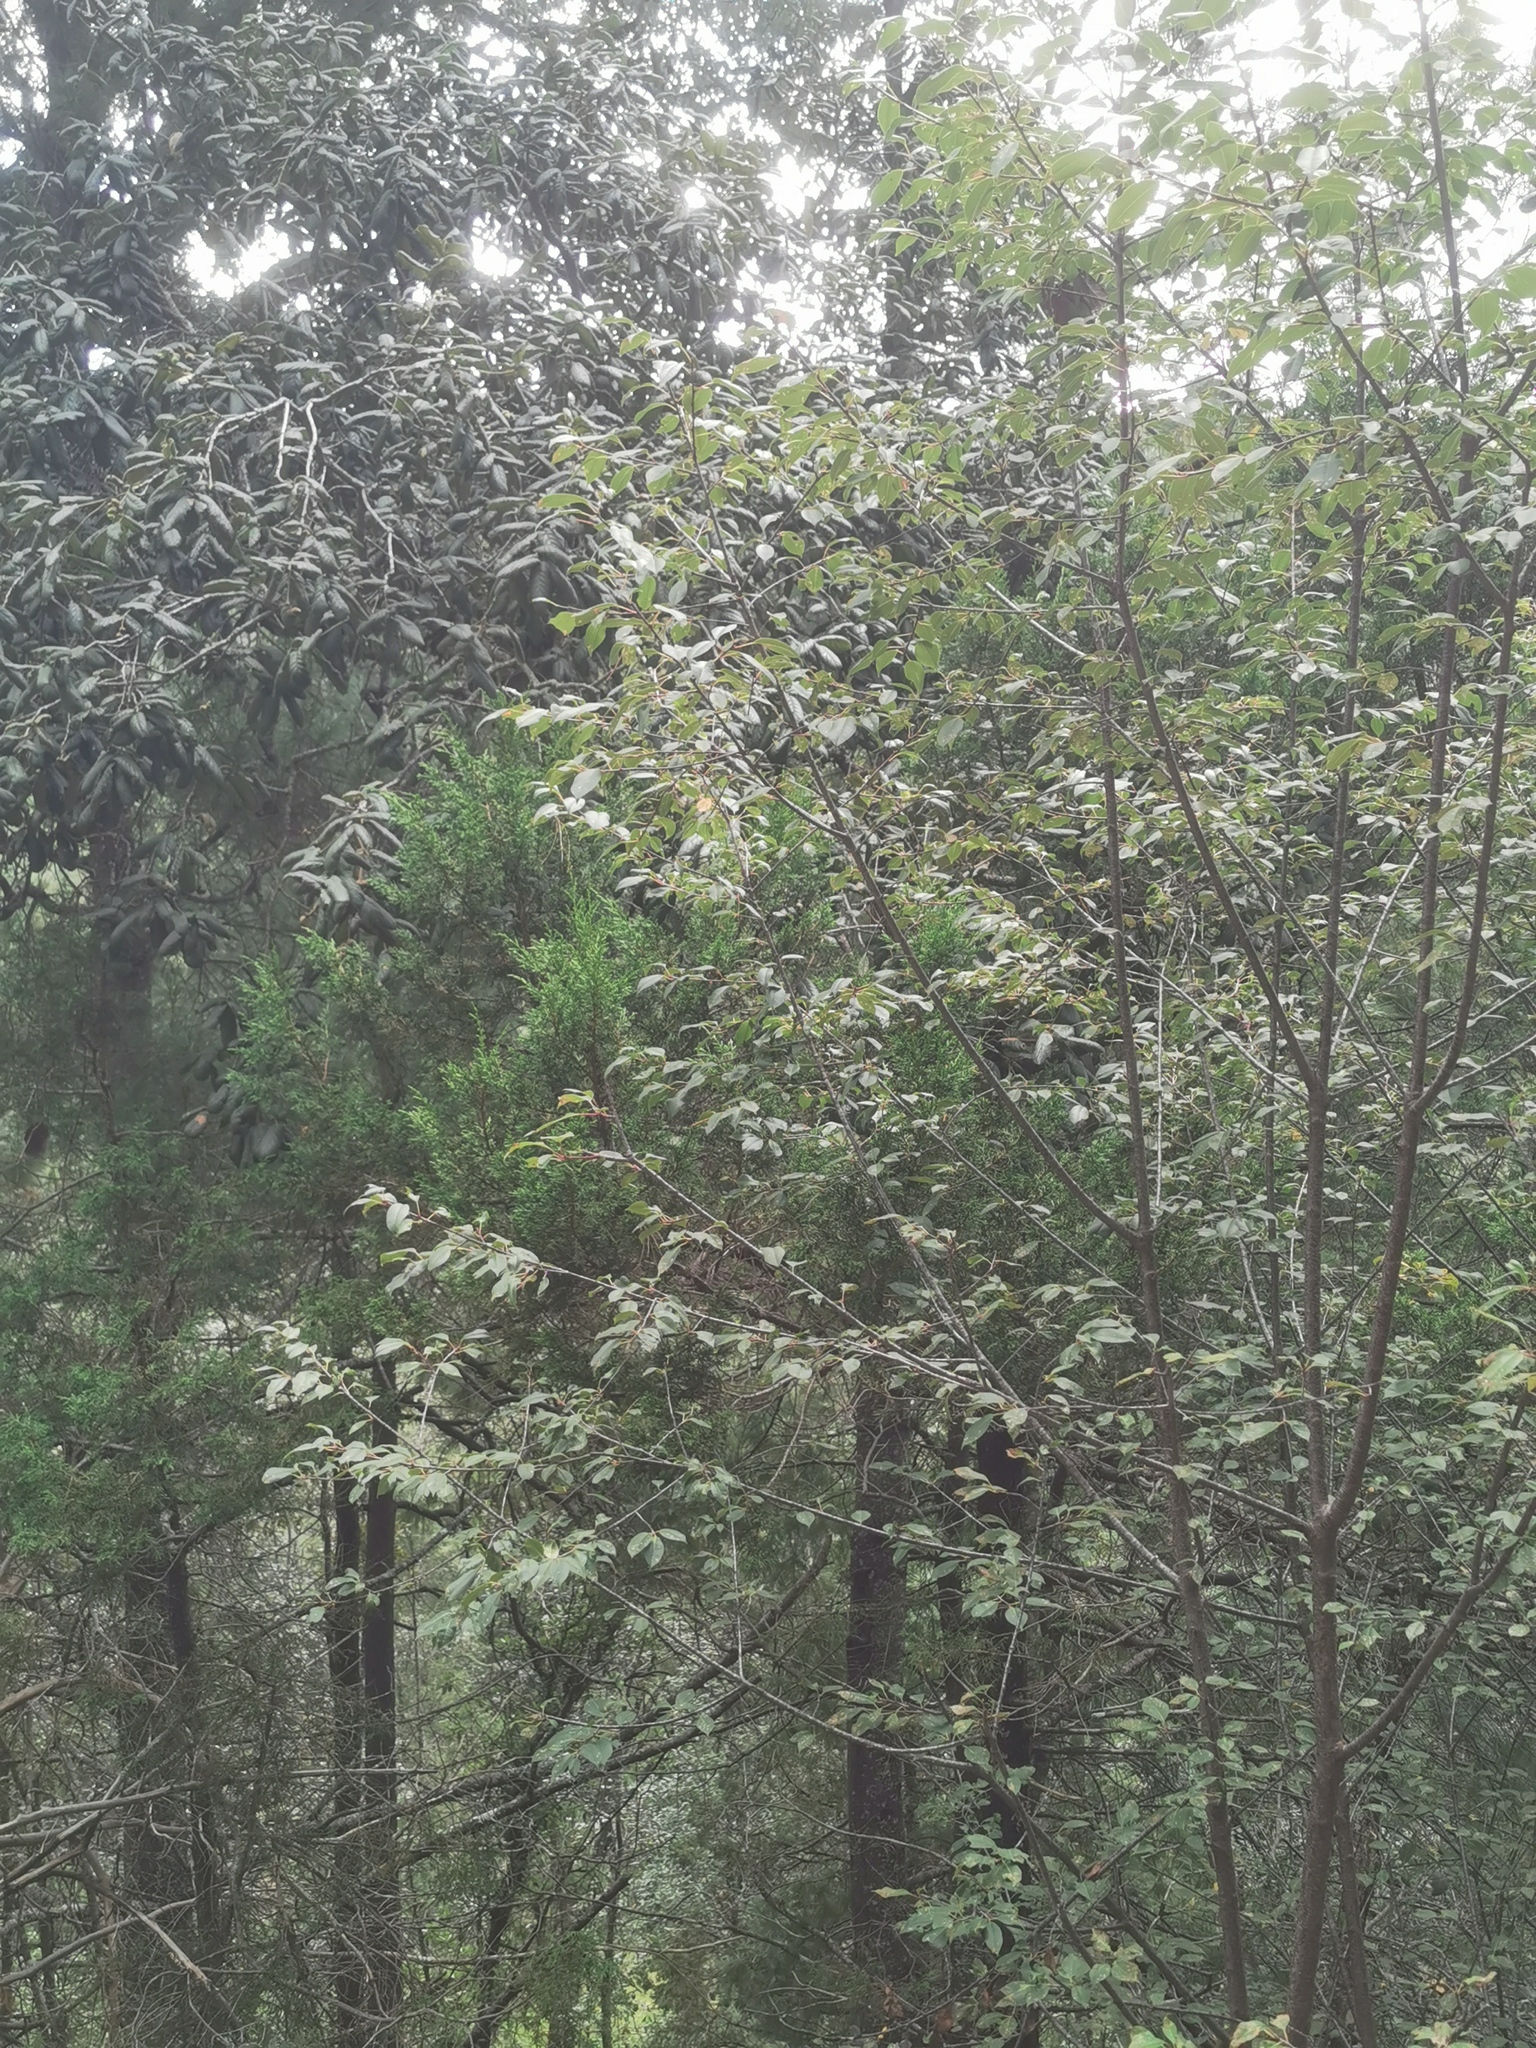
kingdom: Plantae
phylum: Tracheophyta
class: Magnoliopsida
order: Rosales
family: Rosaceae
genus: Prunus
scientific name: Prunus serotina
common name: Black cherry
